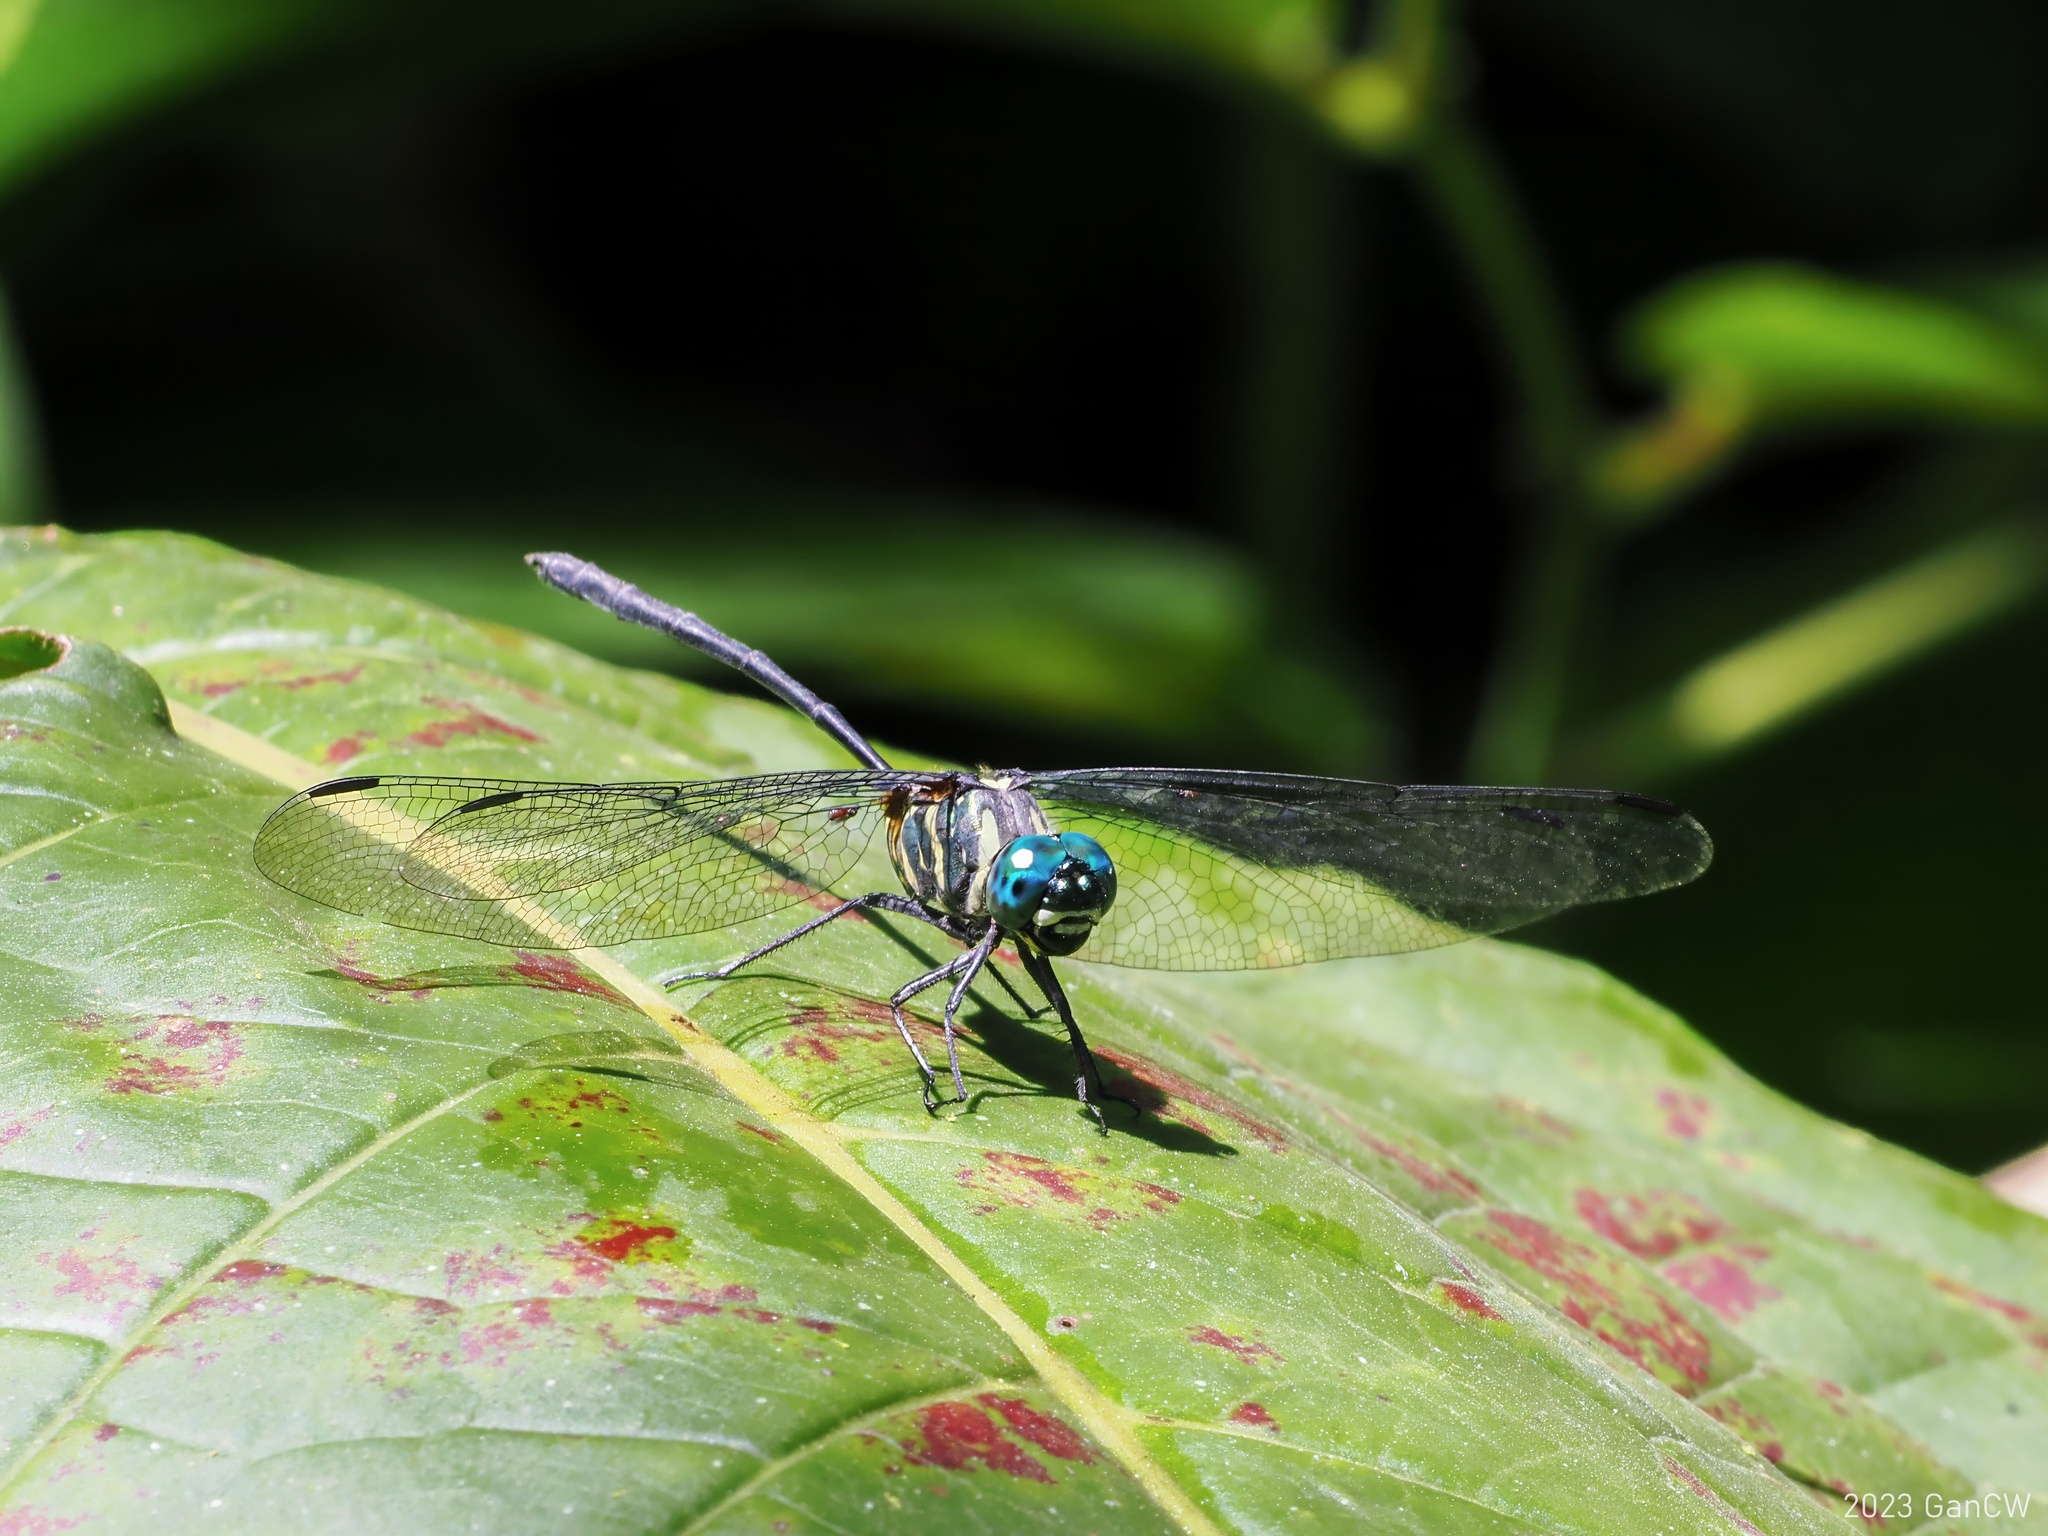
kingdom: Animalia
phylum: Arthropoda
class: Insecta
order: Odonata
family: Libellulidae
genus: Celebothemis
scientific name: Celebothemis delecollei
